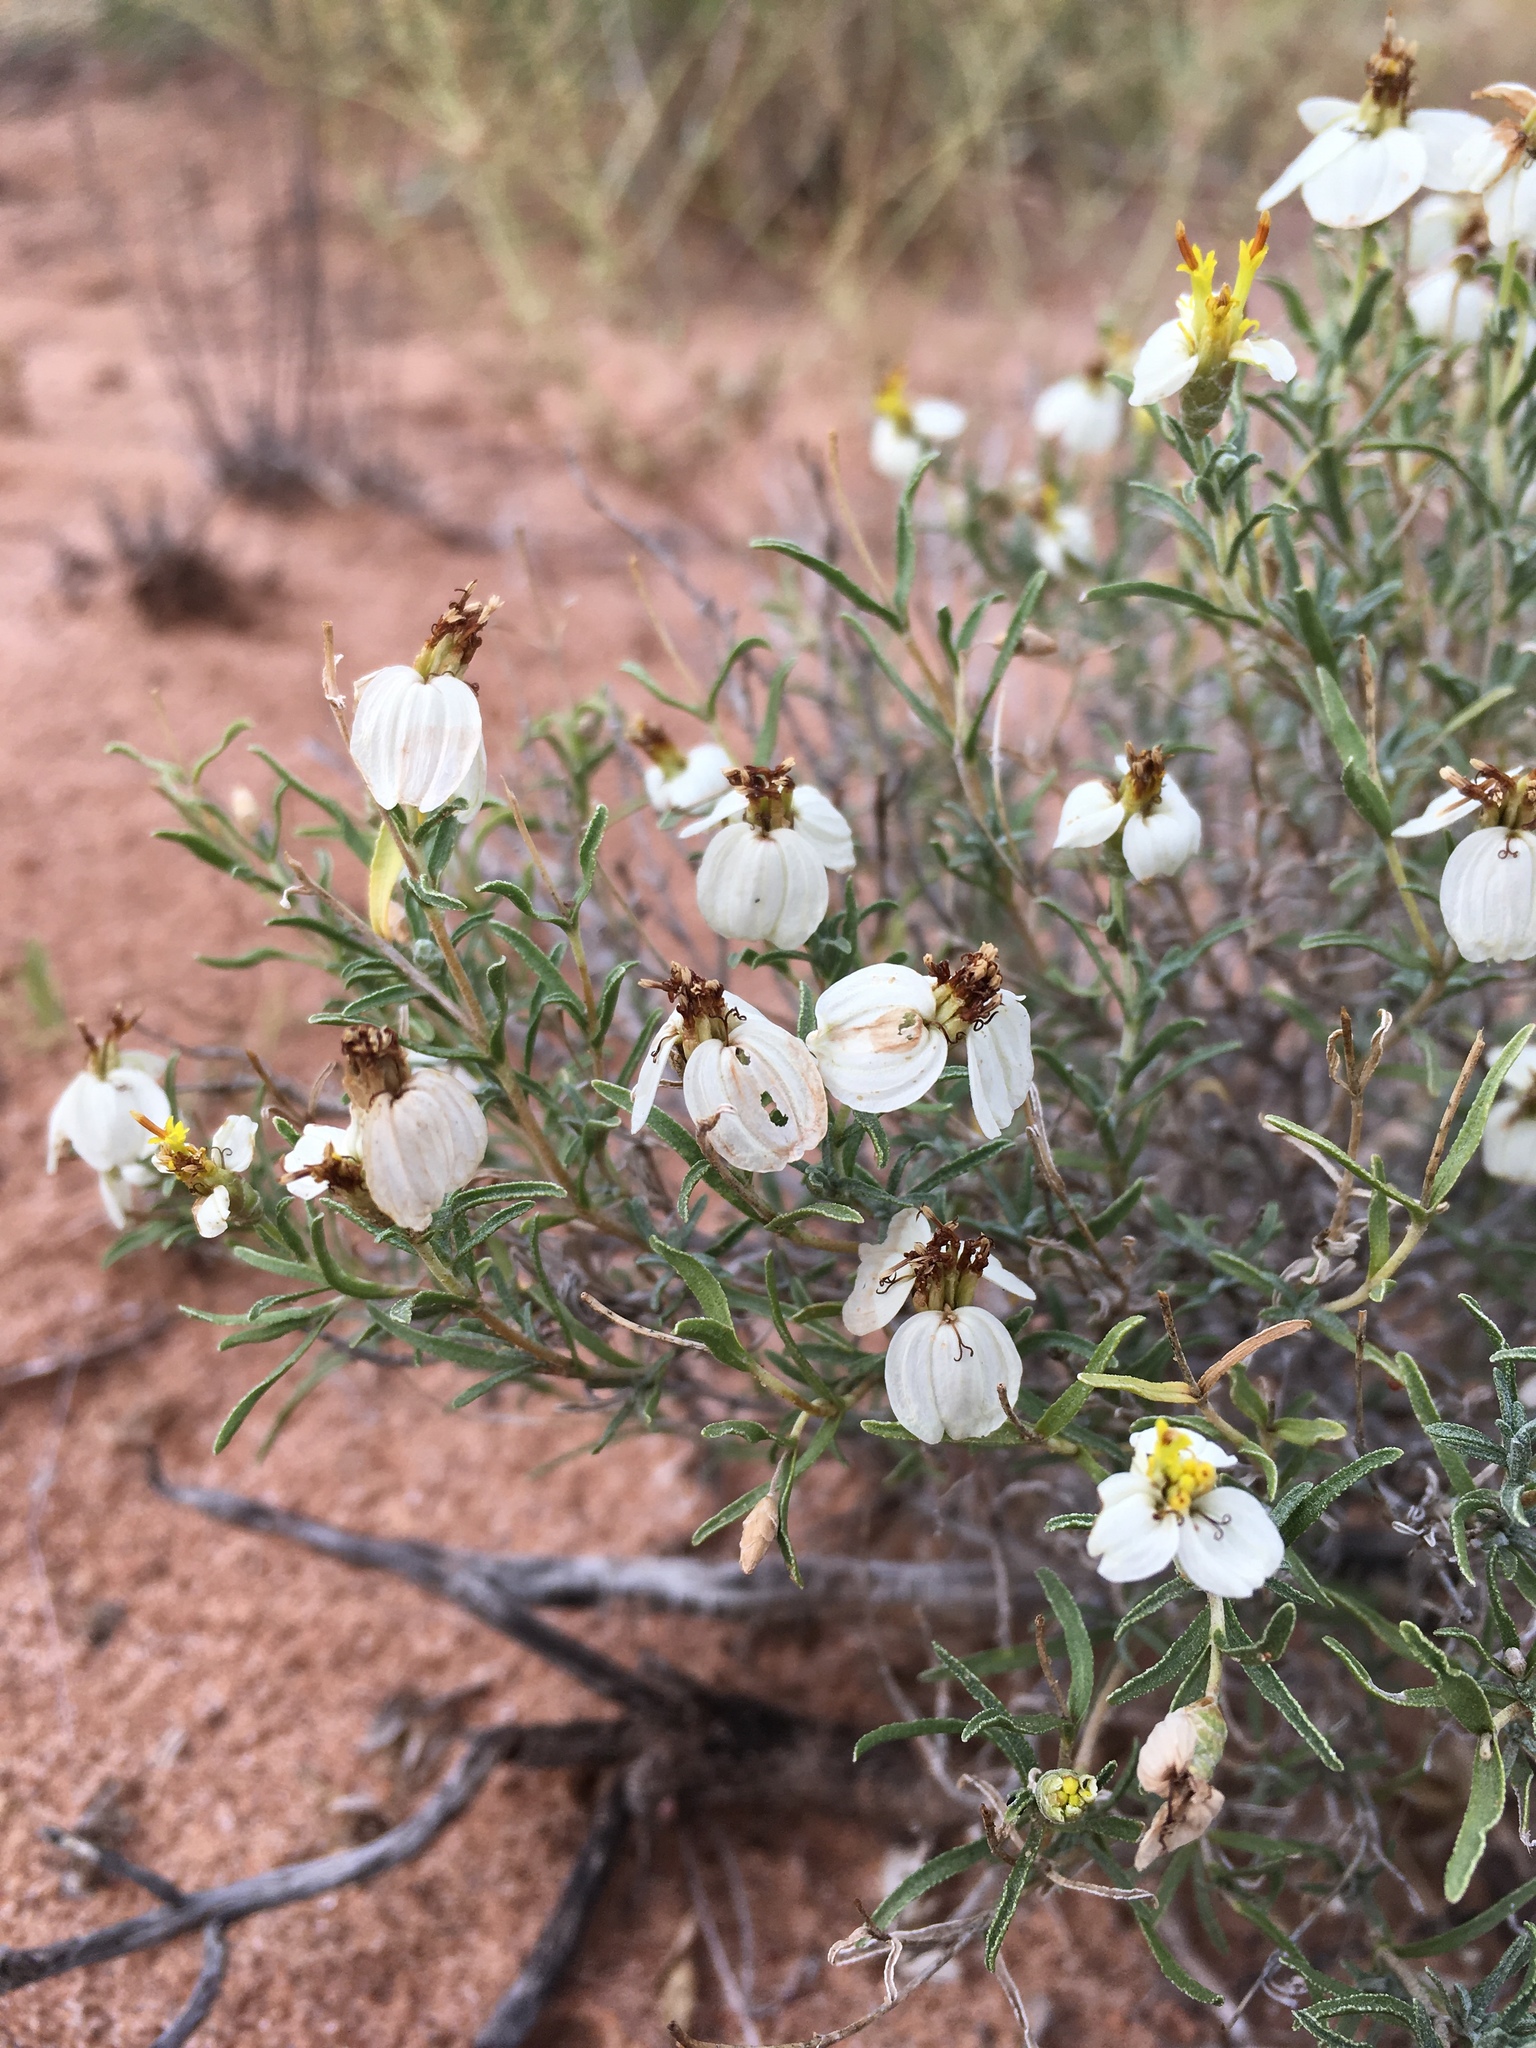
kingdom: Plantae
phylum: Tracheophyta
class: Magnoliopsida
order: Asterales
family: Asteraceae
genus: Zinnia
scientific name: Zinnia acerosa
